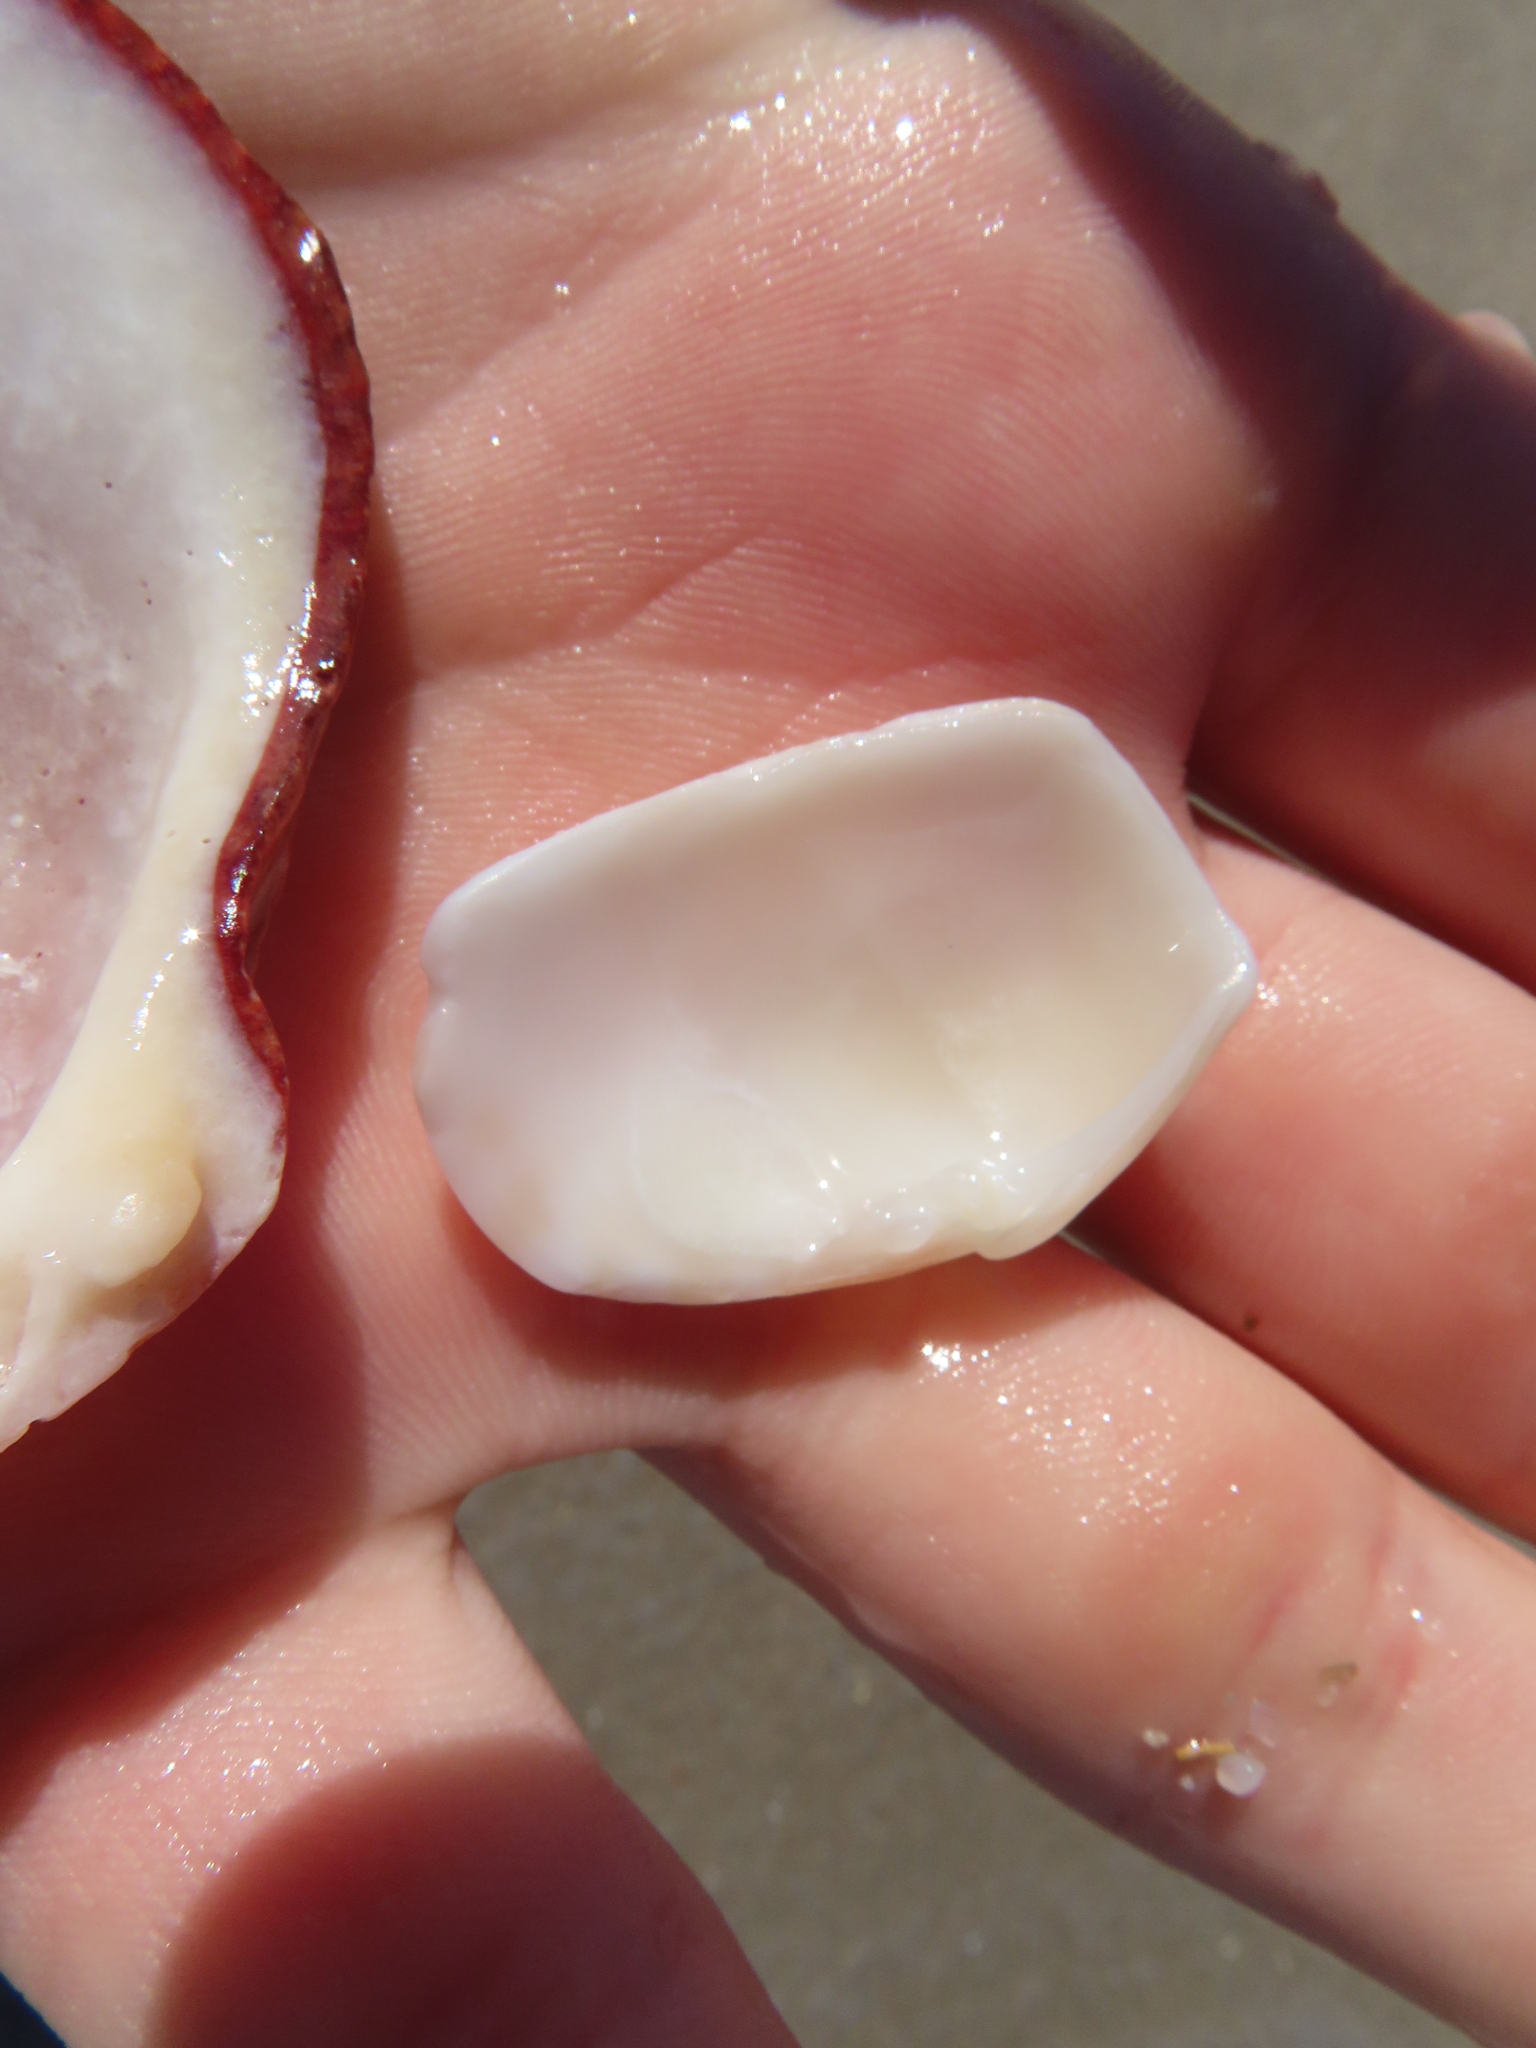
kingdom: Animalia
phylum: Mollusca
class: Bivalvia
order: Venerida
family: Veneridae
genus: Megapitaria
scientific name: Megapitaria maculata
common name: Calico clam
